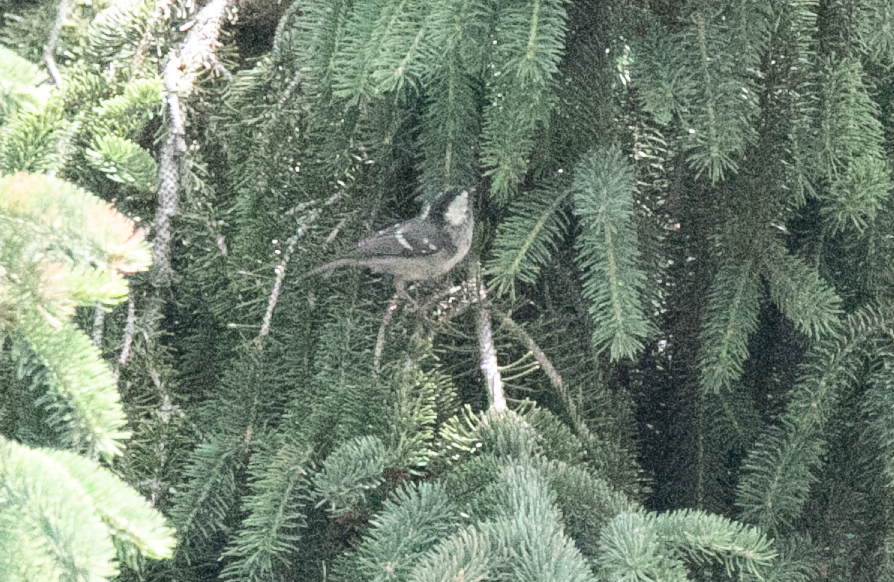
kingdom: Animalia
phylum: Chordata
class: Aves
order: Passeriformes
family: Paridae
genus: Periparus
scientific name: Periparus ater
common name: Coal tit
